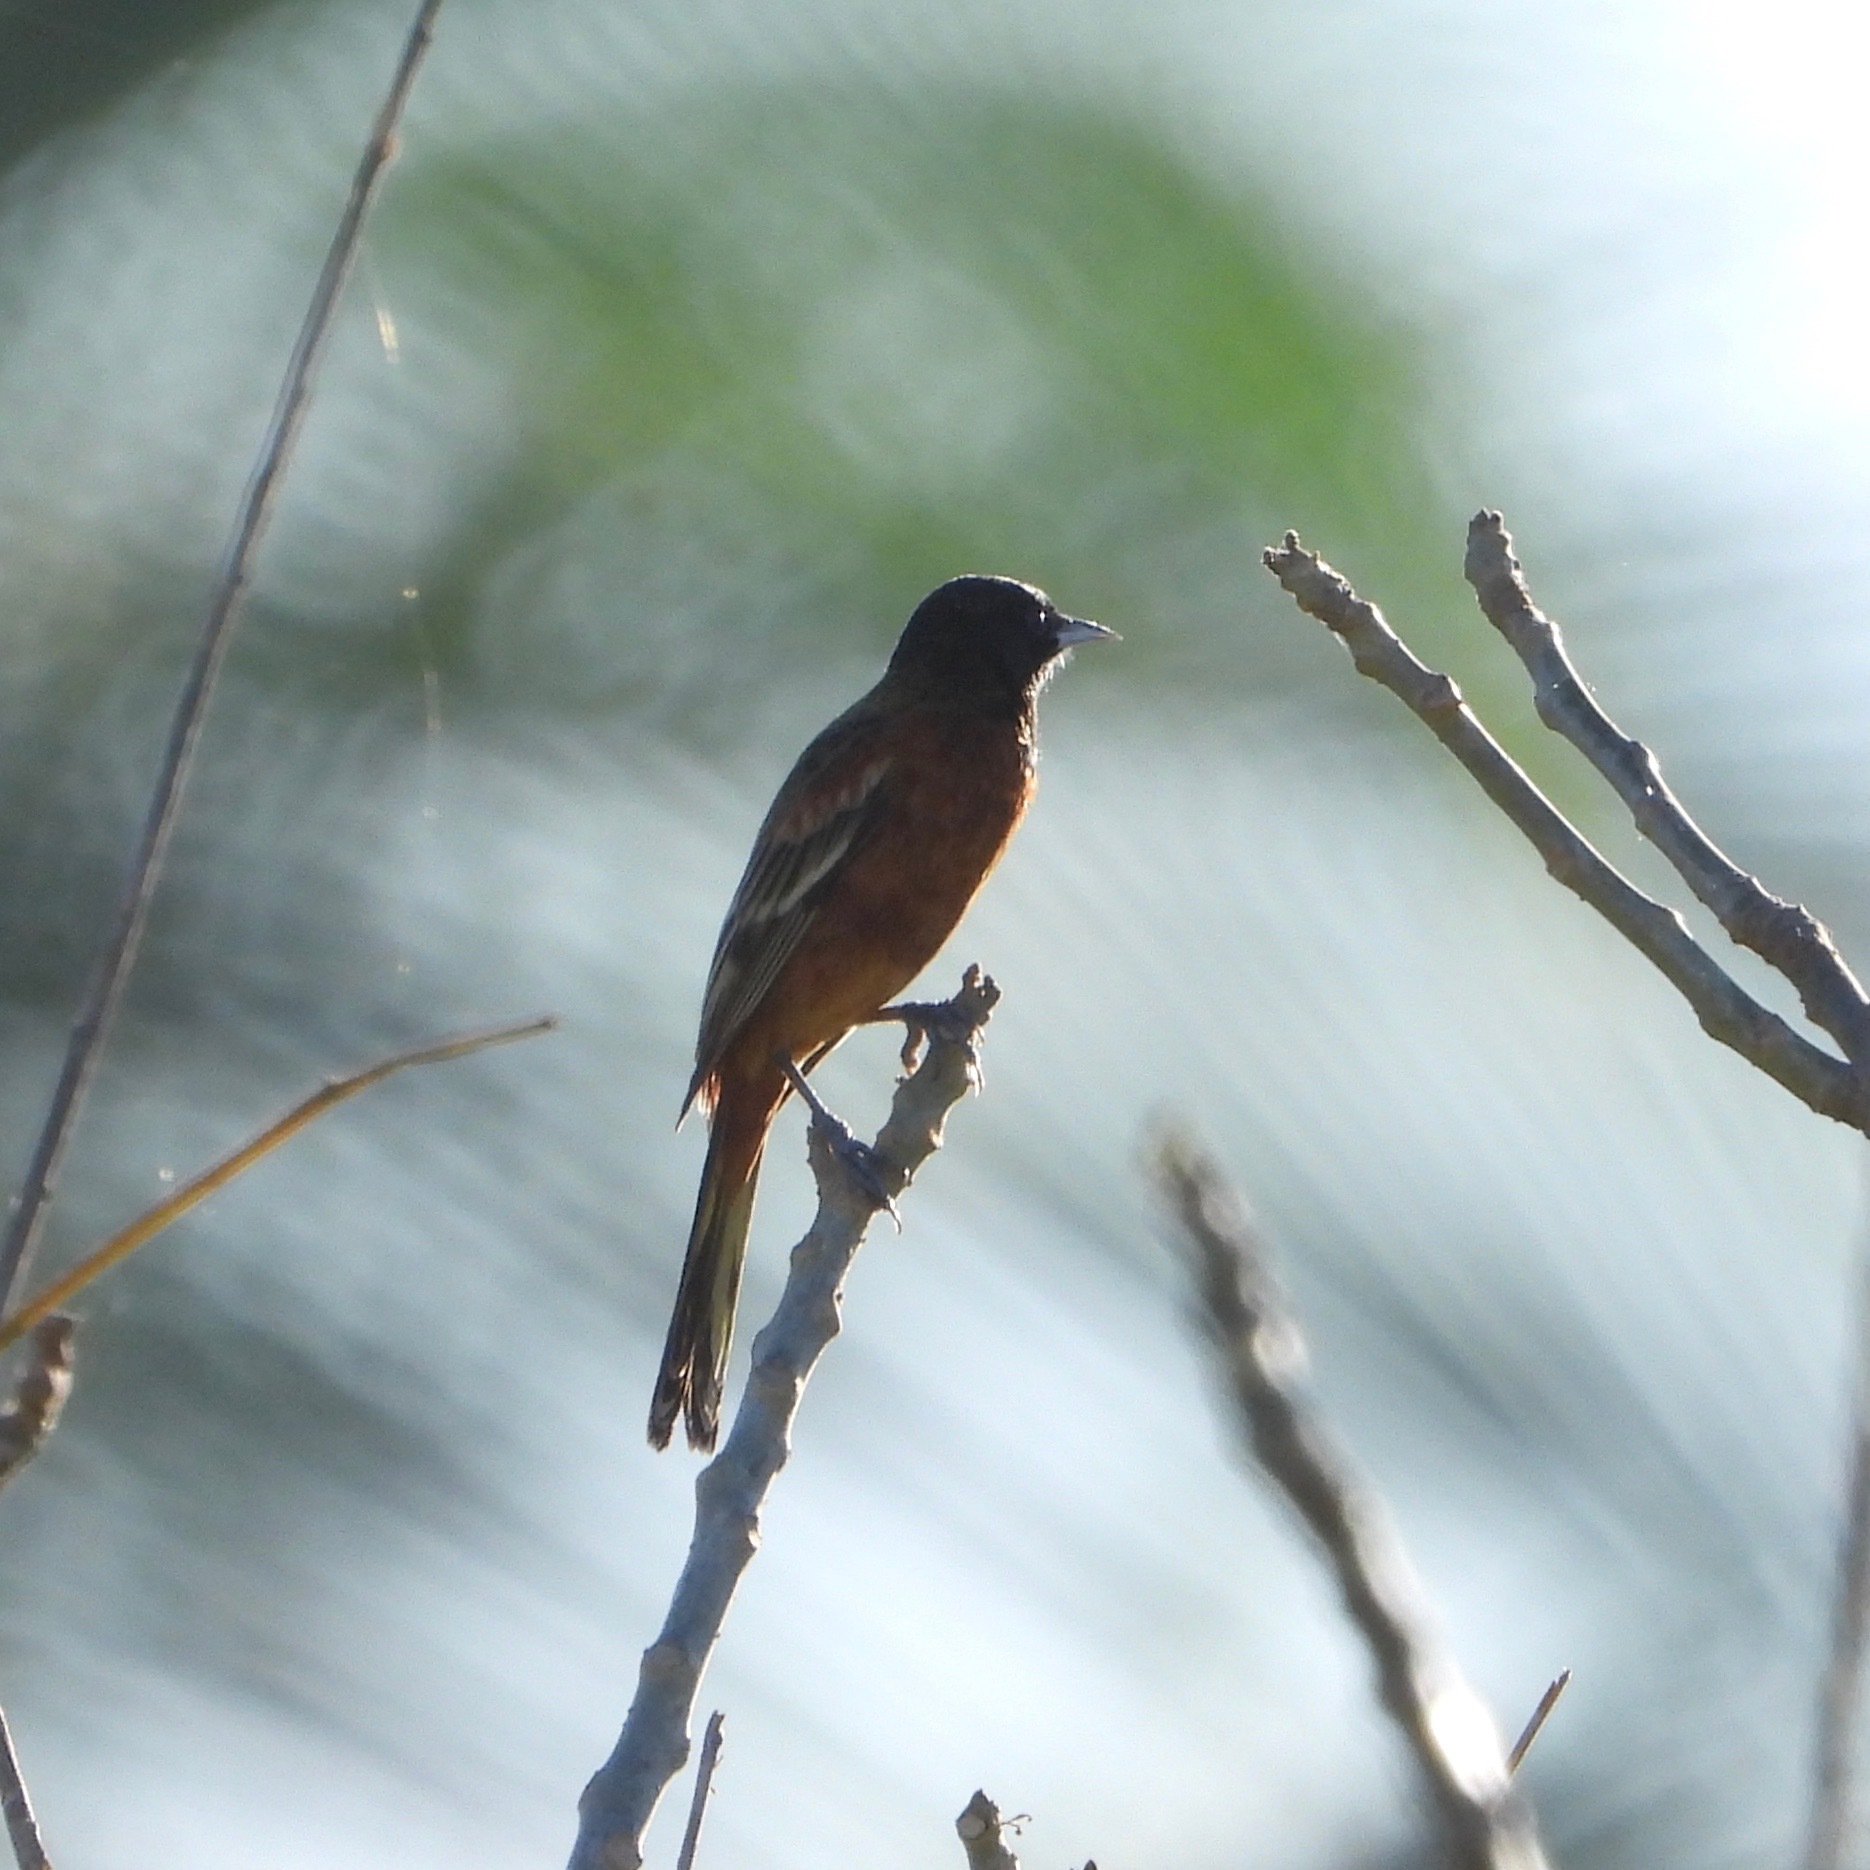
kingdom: Animalia
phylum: Chordata
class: Aves
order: Passeriformes
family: Icteridae
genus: Icterus
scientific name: Icterus spurius
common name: Orchard oriole
